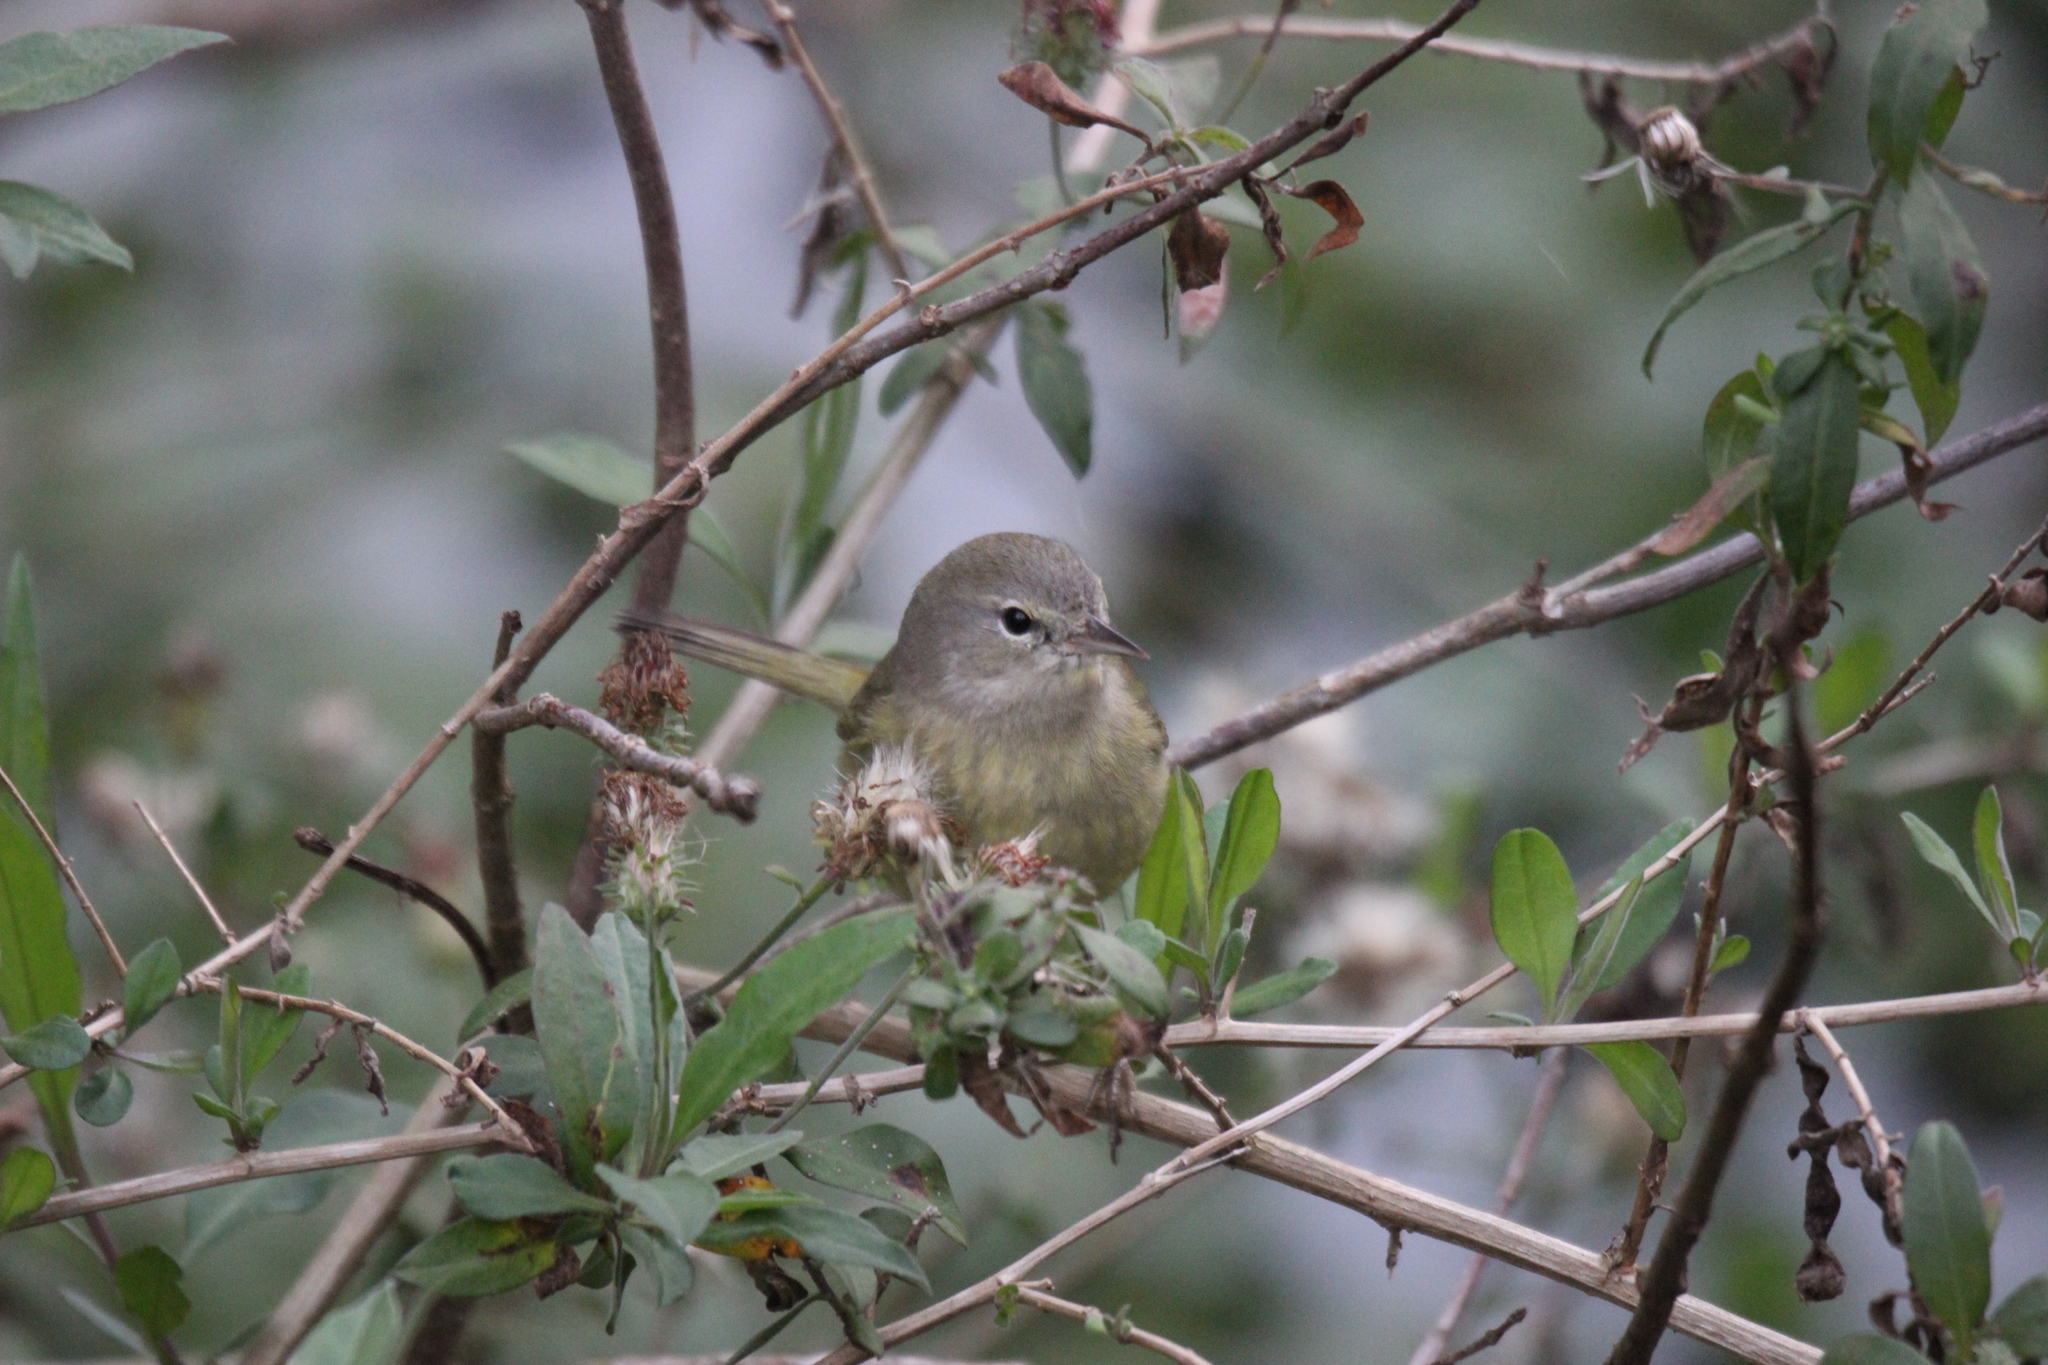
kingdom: Animalia
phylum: Chordata
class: Aves
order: Passeriformes
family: Parulidae
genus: Leiothlypis
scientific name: Leiothlypis celata
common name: Orange-crowned warbler
